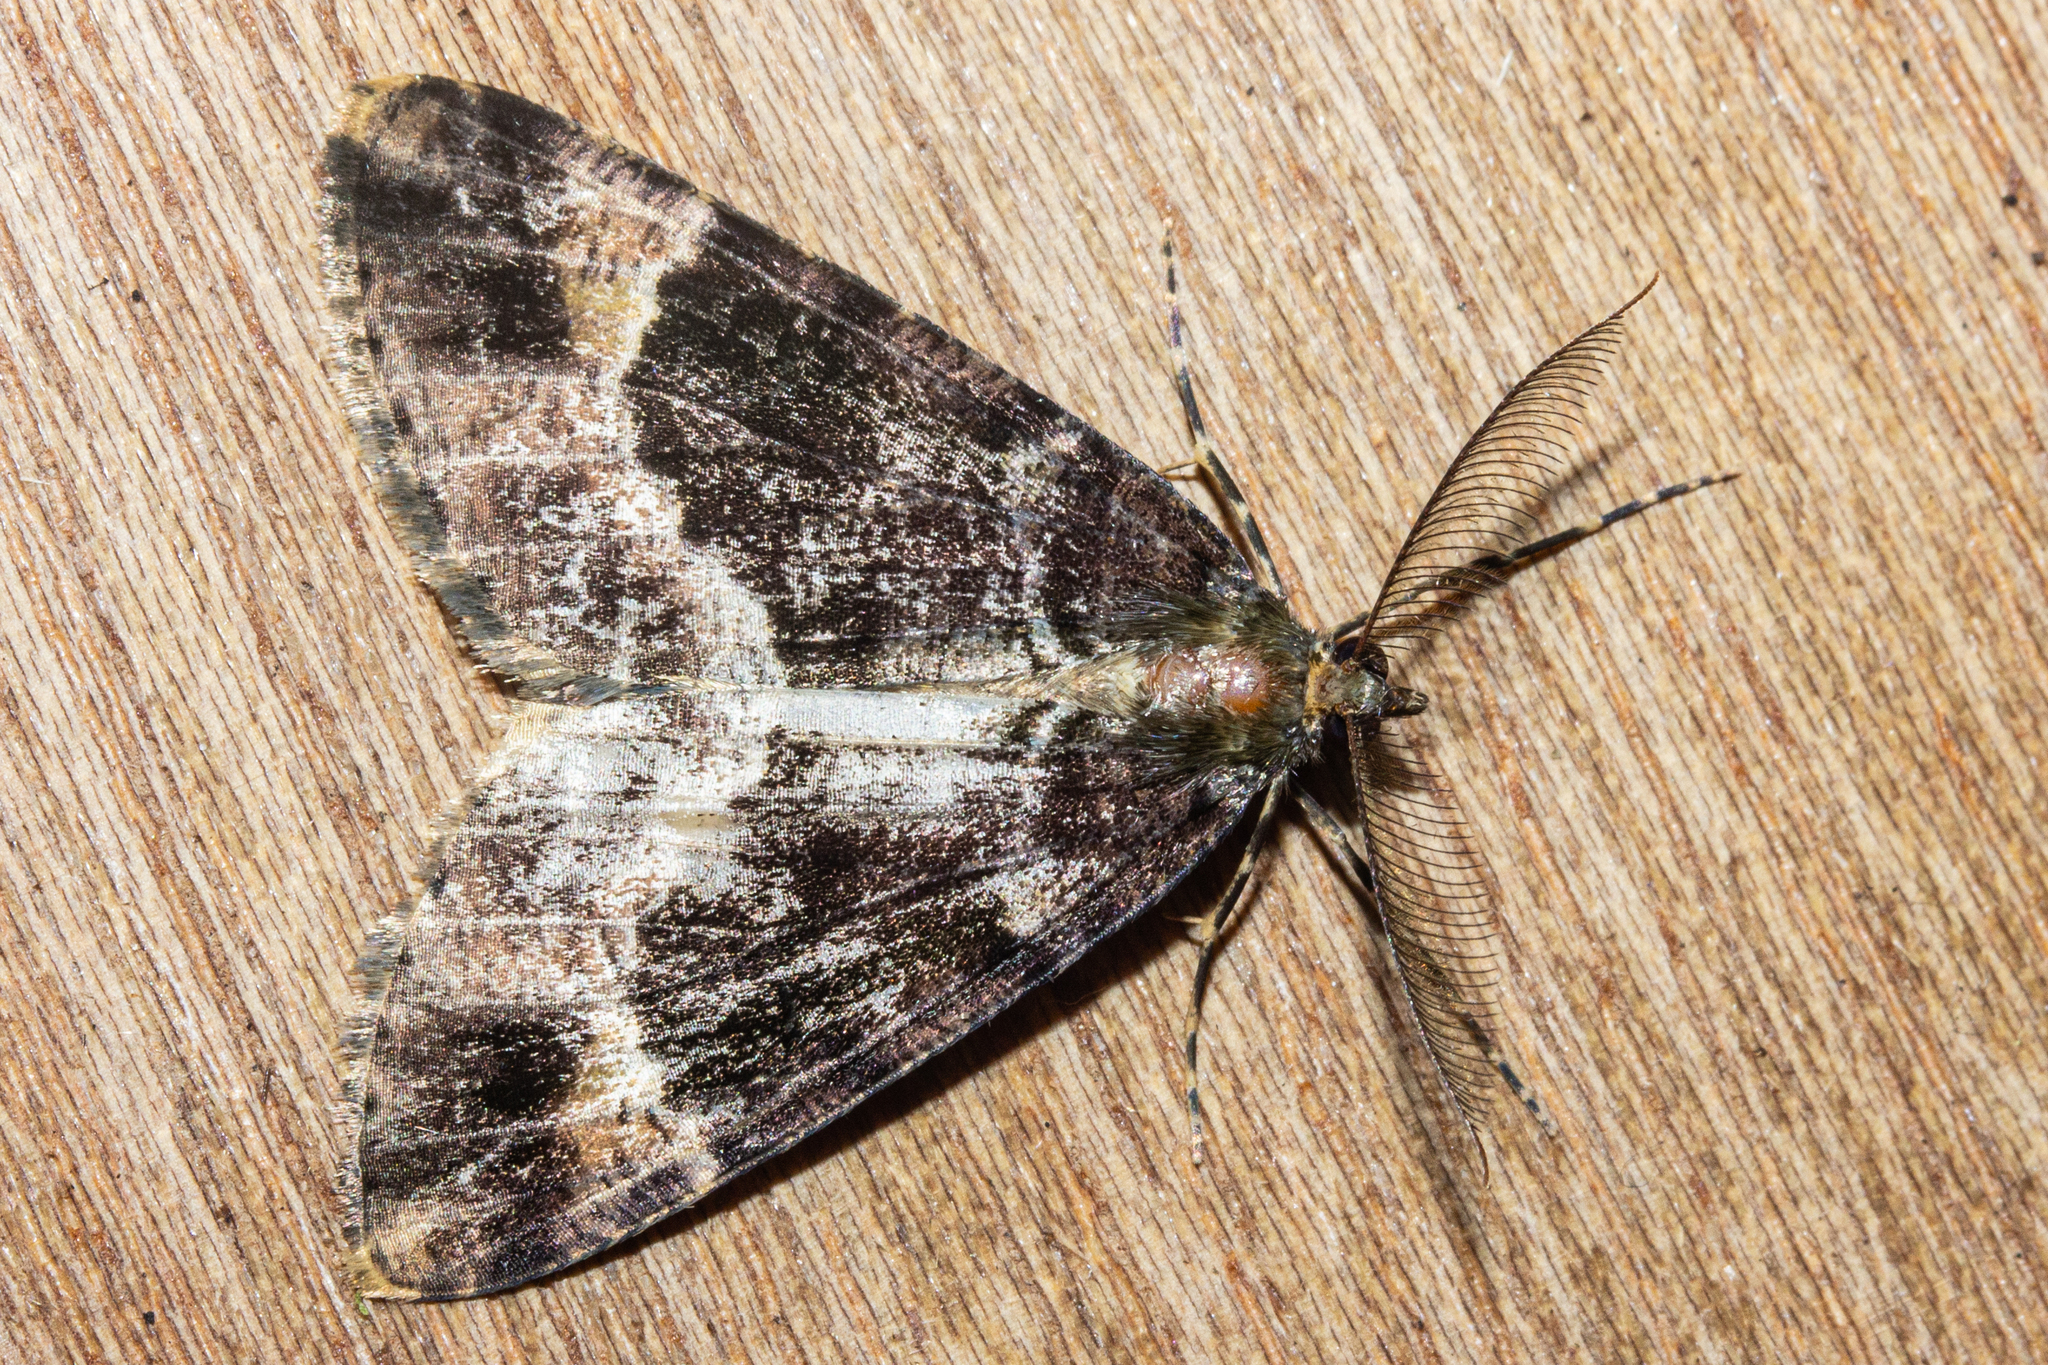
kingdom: Animalia
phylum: Arthropoda
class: Insecta
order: Lepidoptera
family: Geometridae
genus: Pseudocoremia
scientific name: Pseudocoremia productata
